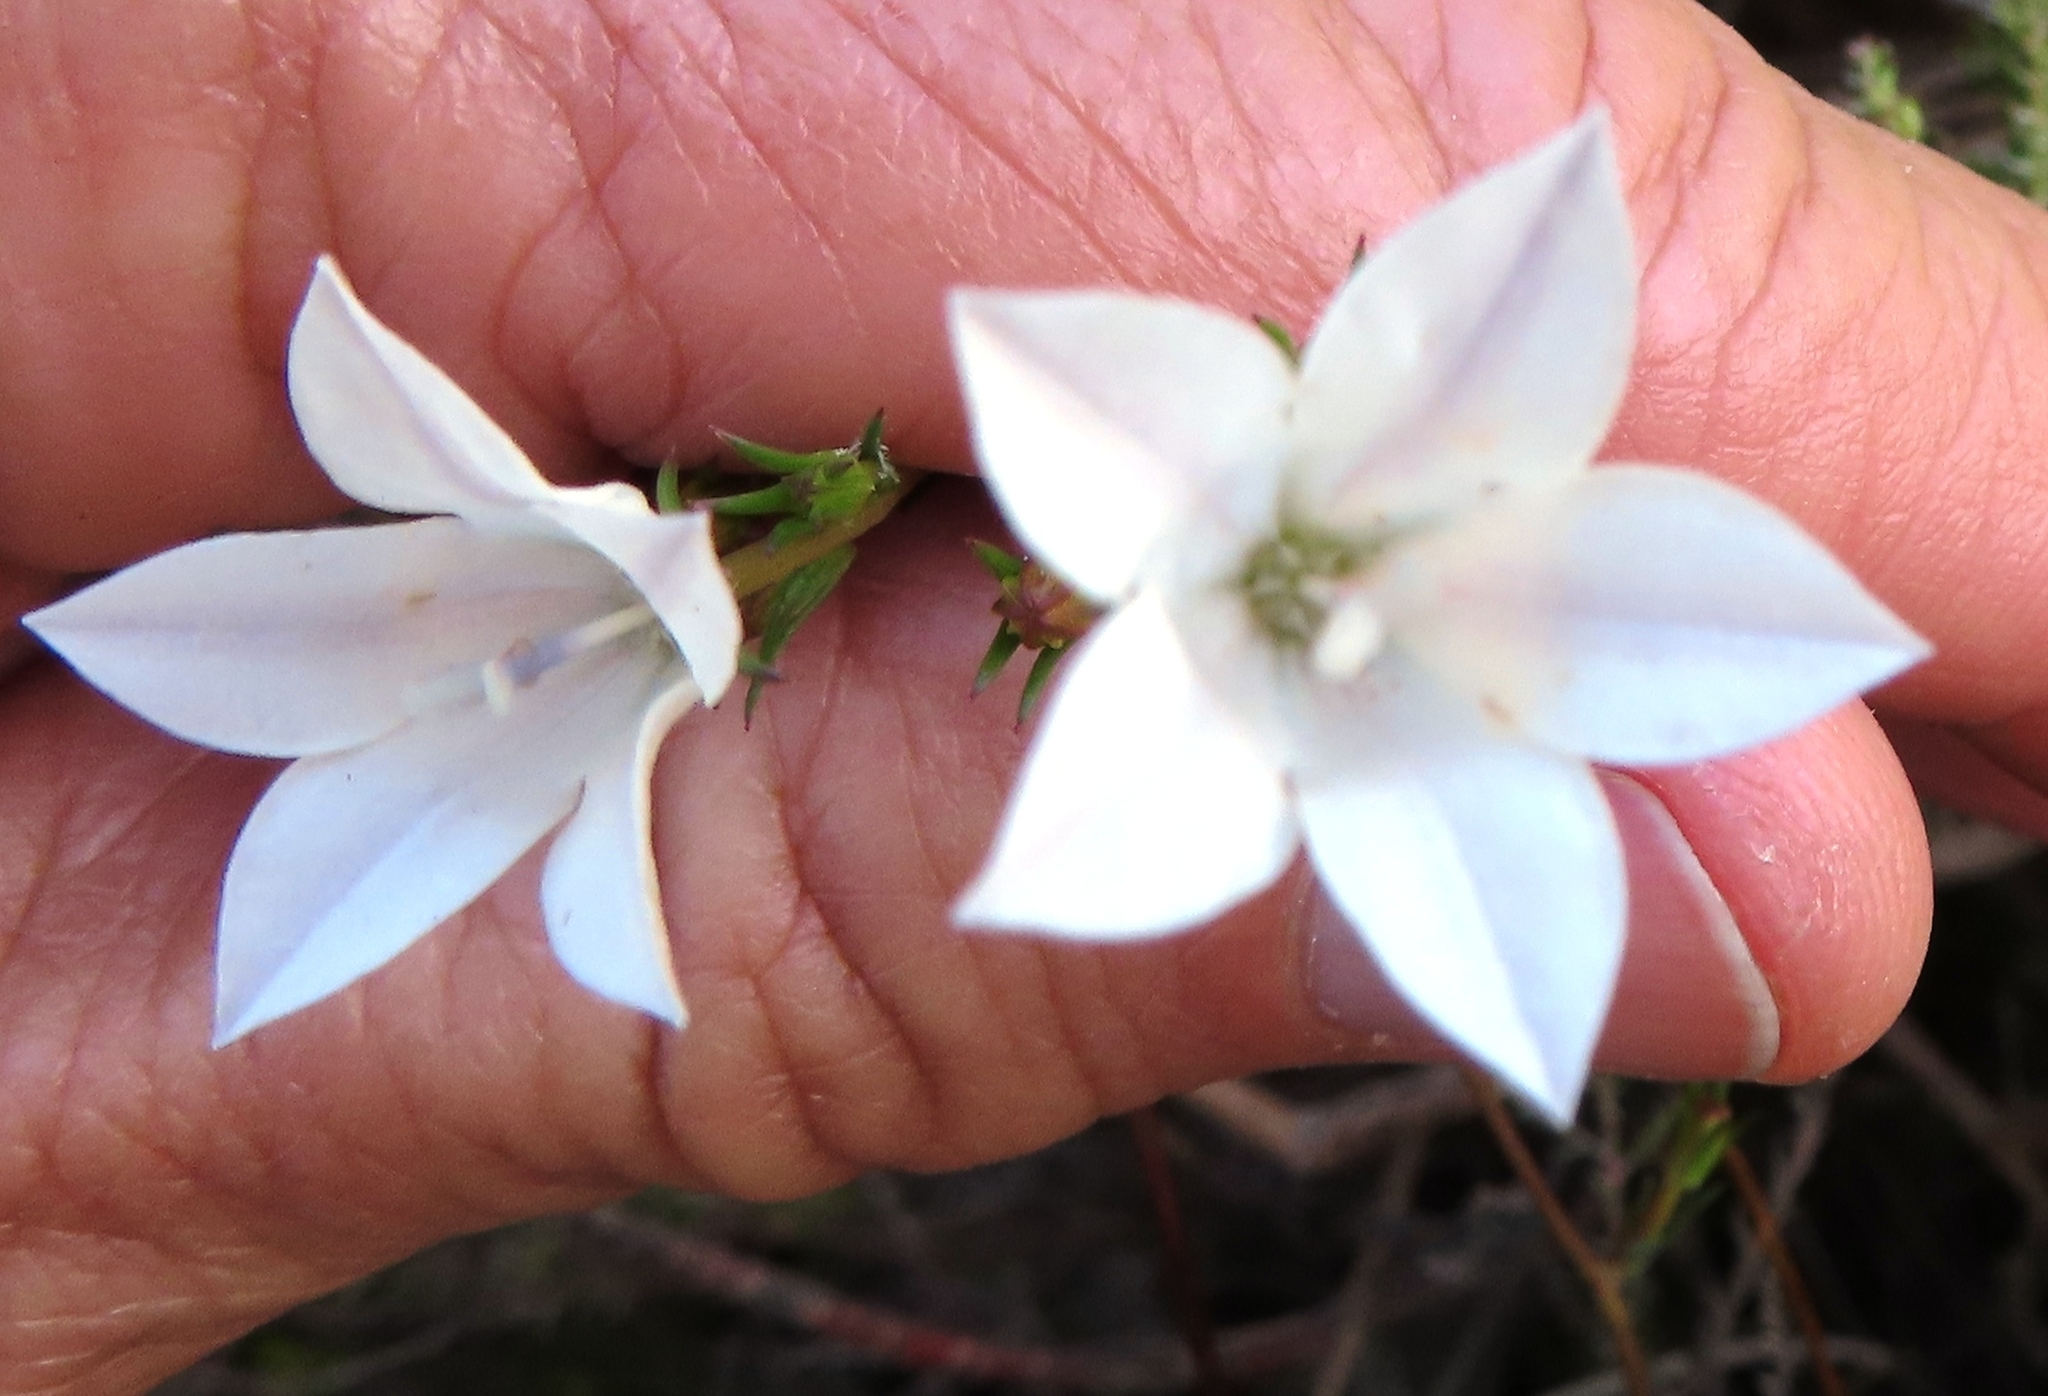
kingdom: Plantae
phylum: Tracheophyta
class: Magnoliopsida
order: Asterales
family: Campanulaceae
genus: Prismatocarpus
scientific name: Prismatocarpus fruticosus
